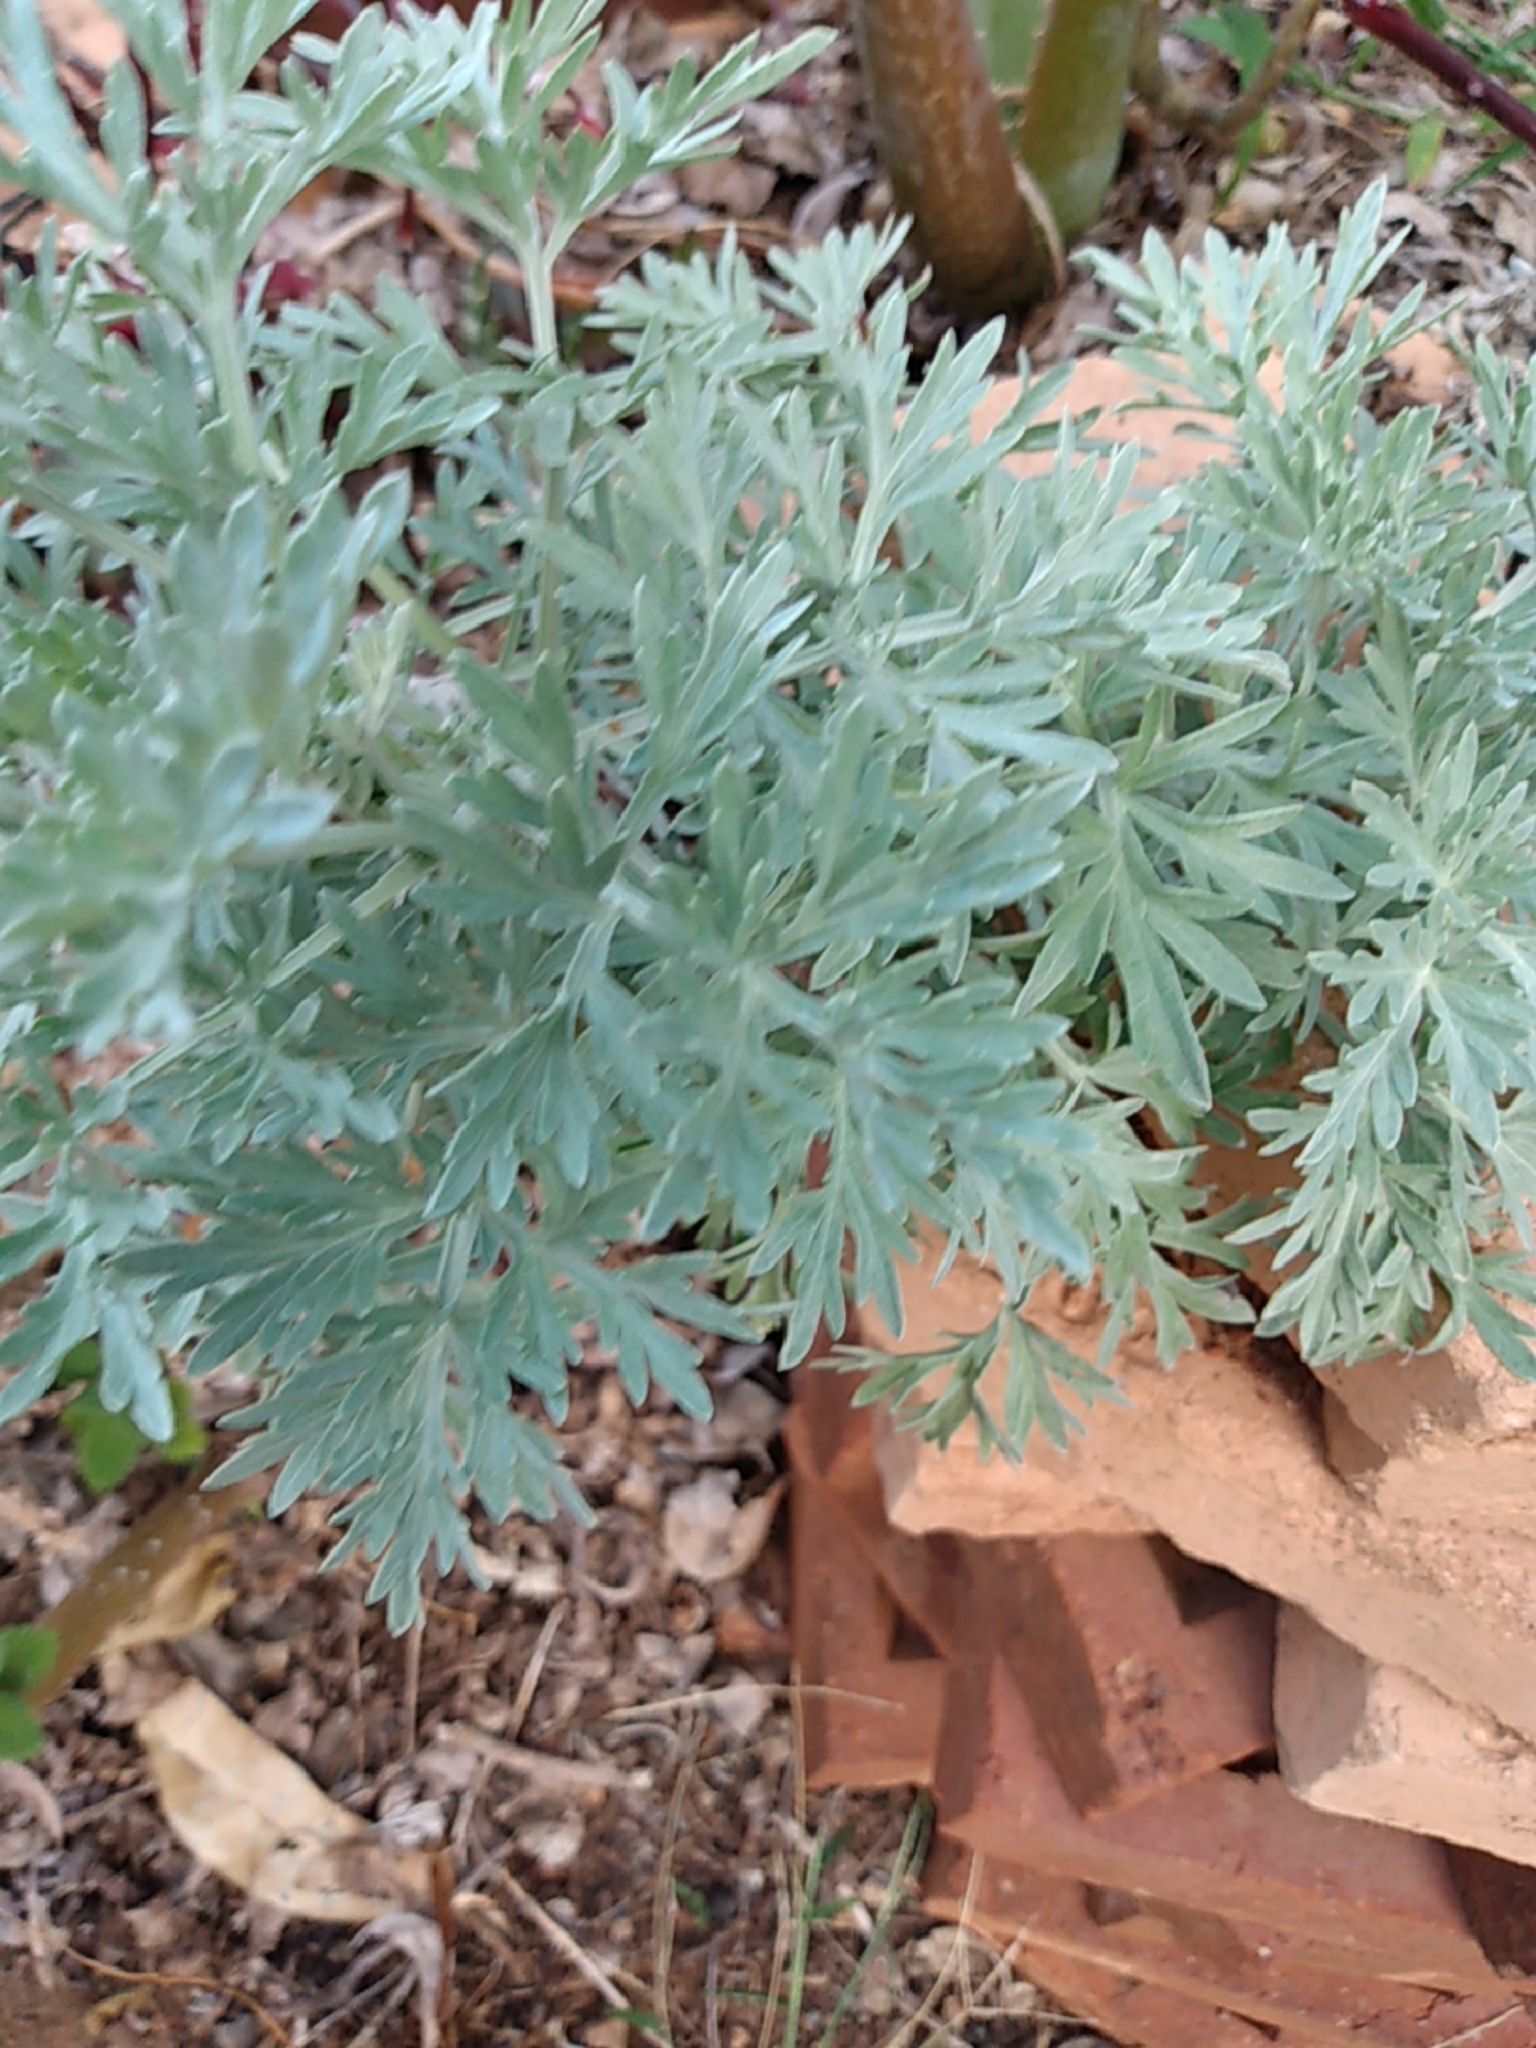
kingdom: Plantae
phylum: Tracheophyta
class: Magnoliopsida
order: Asterales
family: Asteraceae
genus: Artemisia
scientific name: Artemisia absinthium
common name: Wormwood
